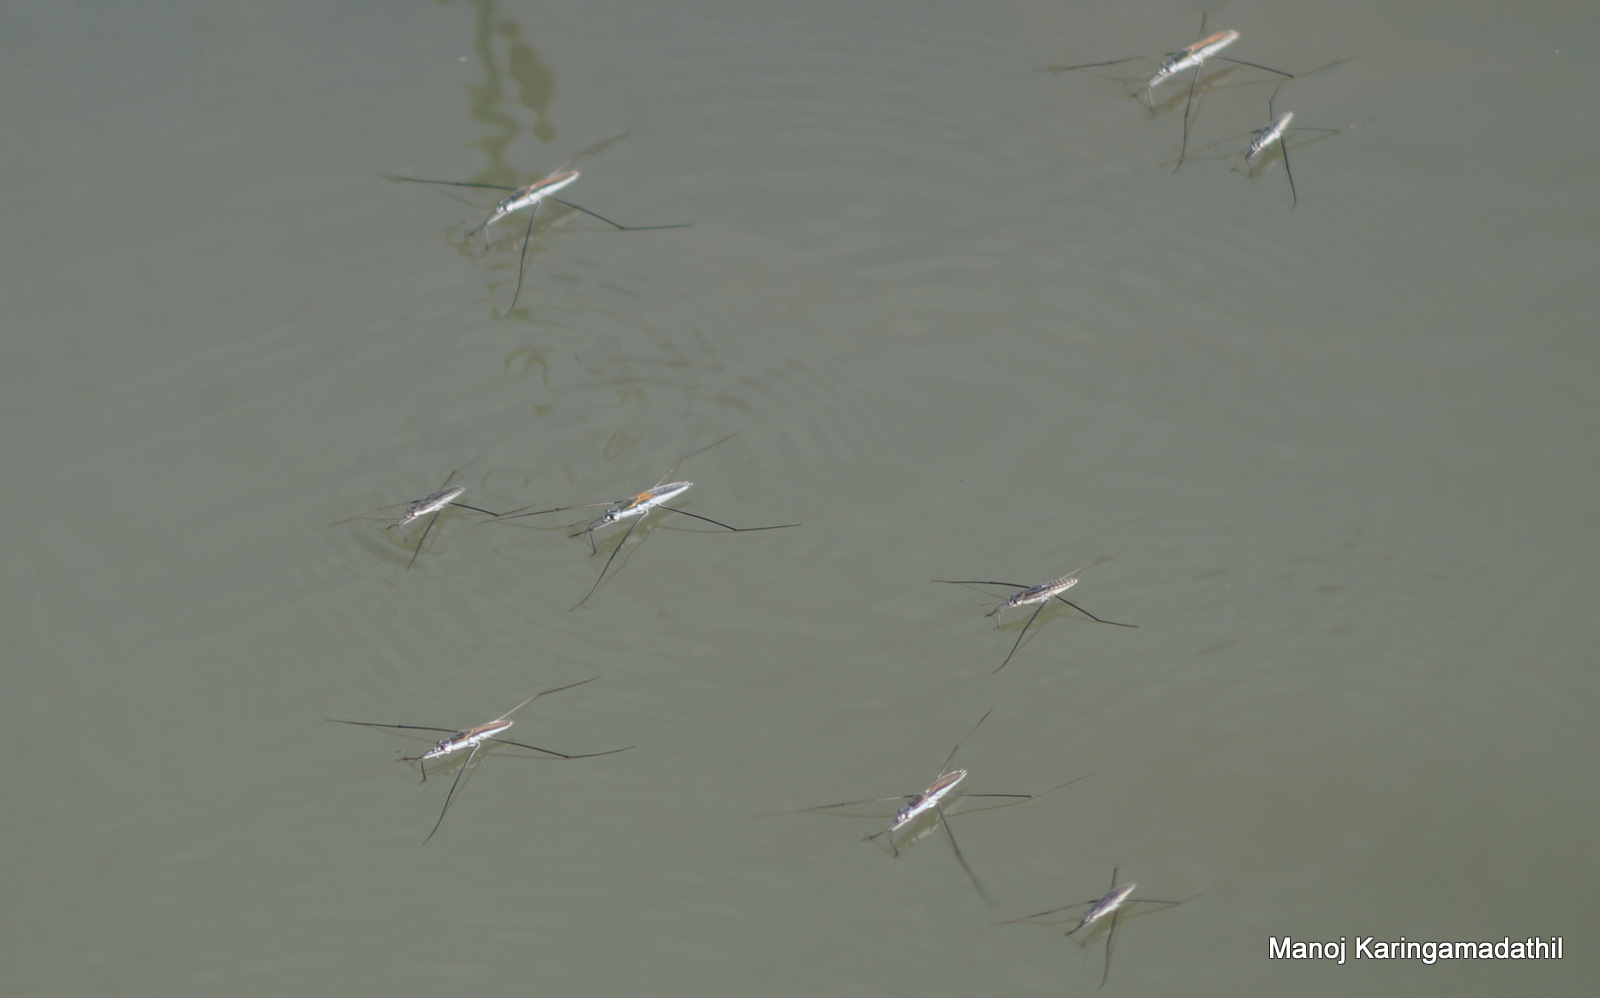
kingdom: Animalia
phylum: Arthropoda
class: Insecta
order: Hemiptera
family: Gerridae
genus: Aquarius
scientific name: Aquarius adelaidis
